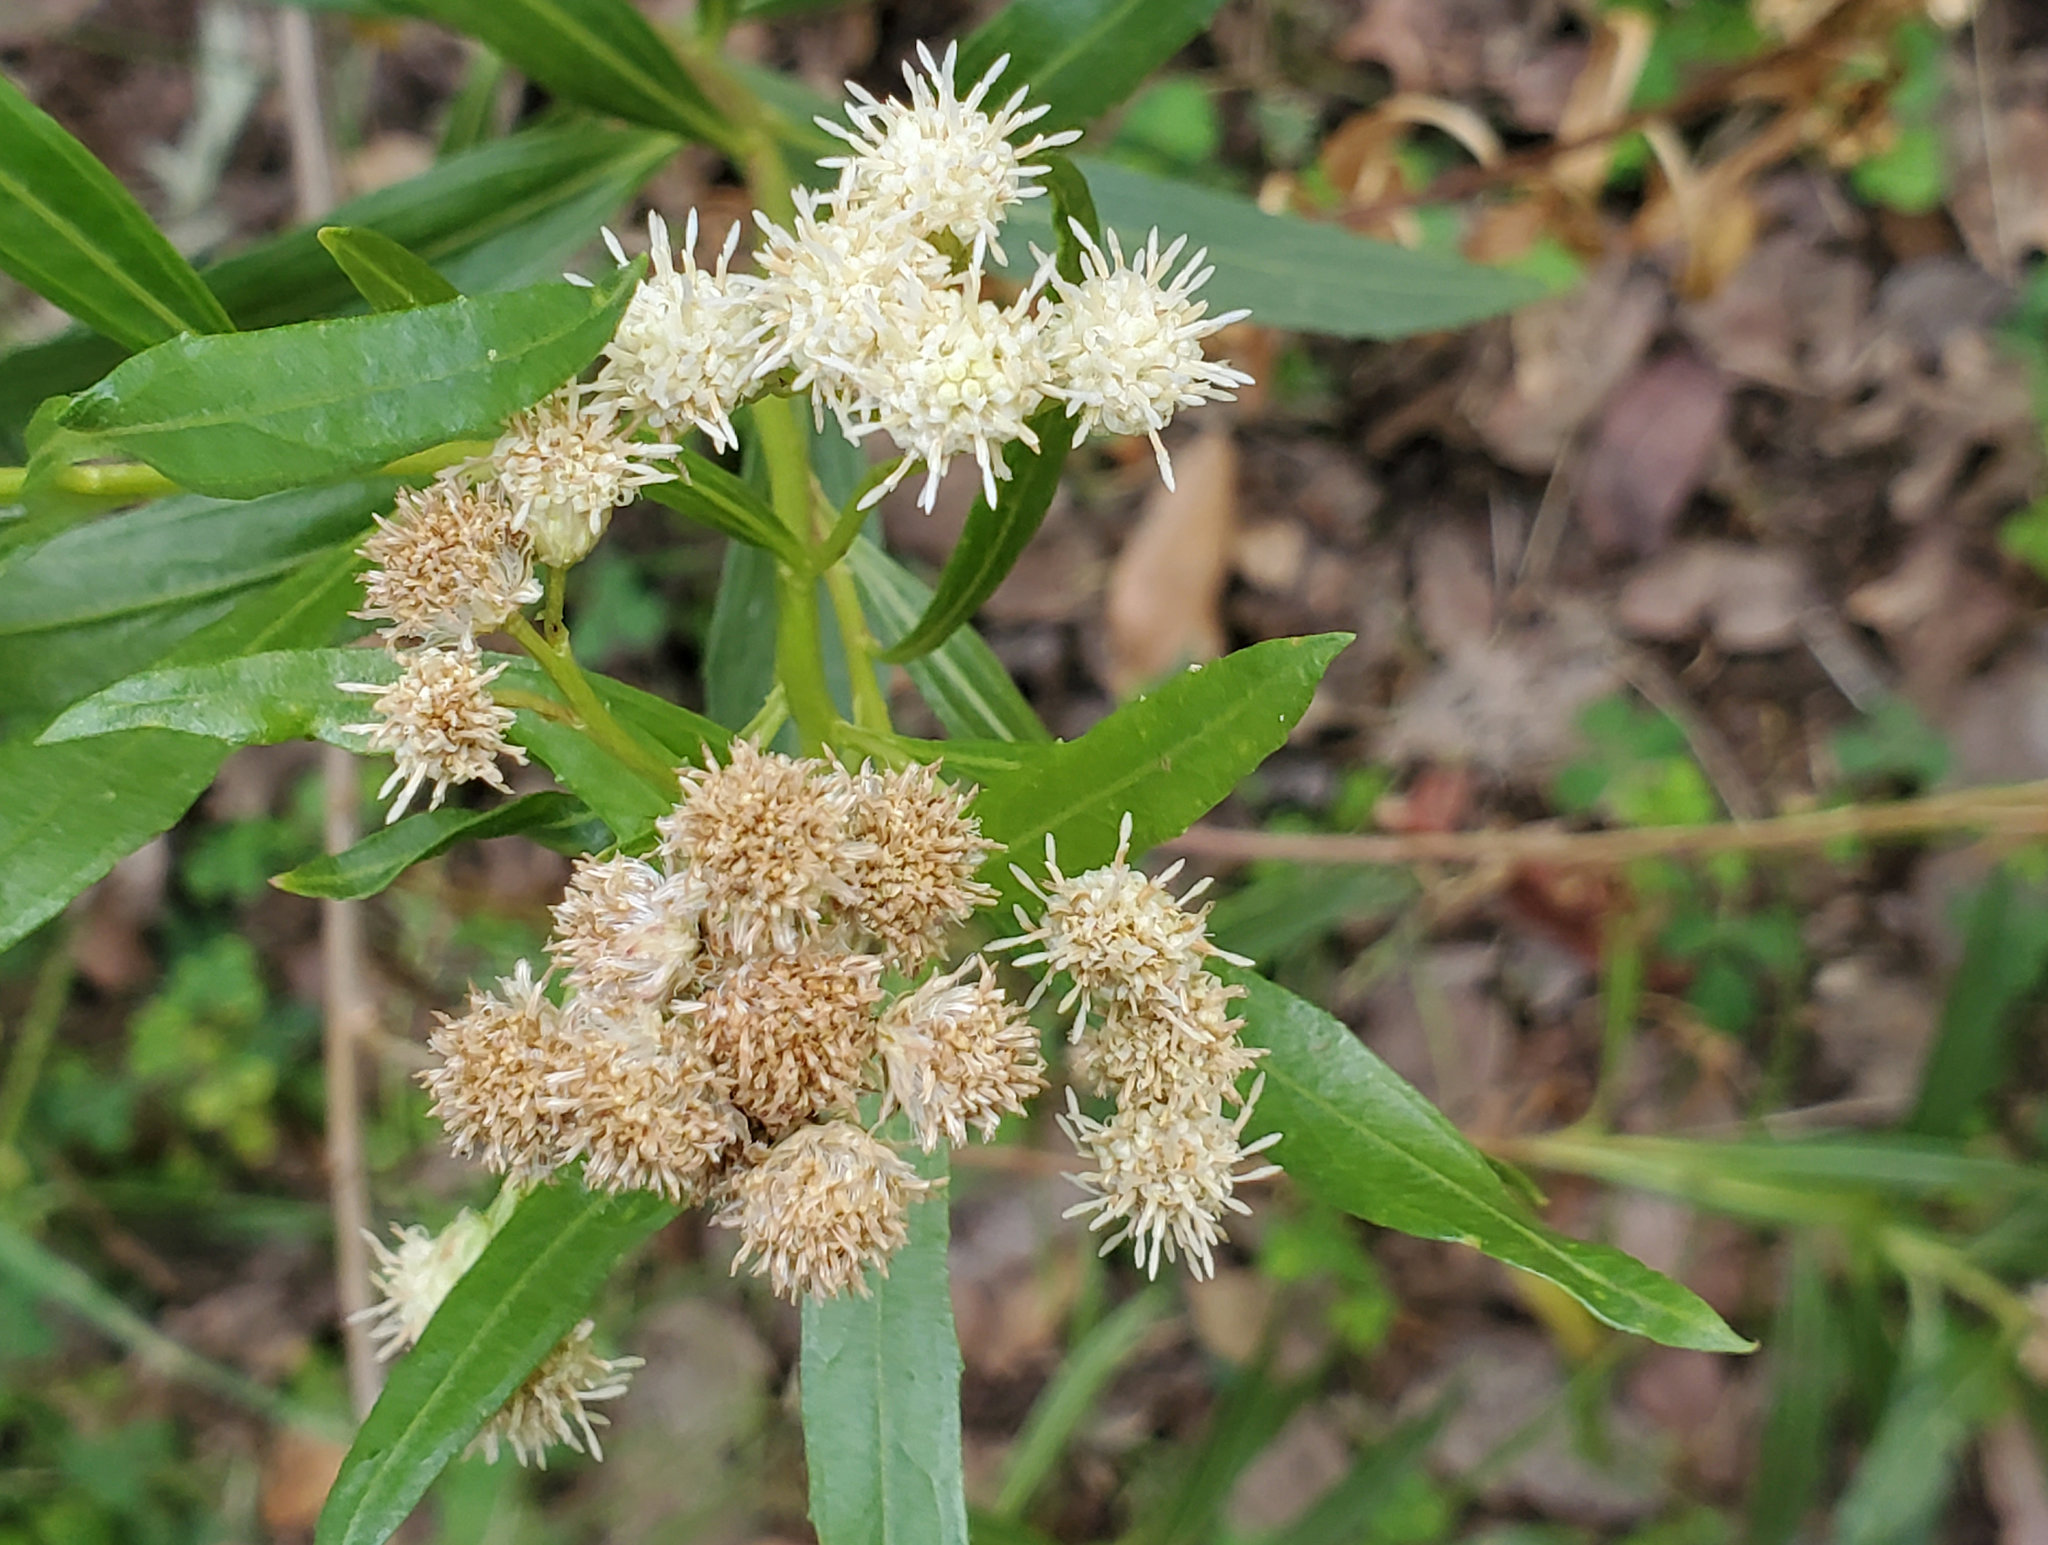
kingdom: Plantae
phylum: Tracheophyta
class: Magnoliopsida
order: Asterales
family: Asteraceae
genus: Baccharis
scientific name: Baccharis salicifolia
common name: Sticky baccharis
